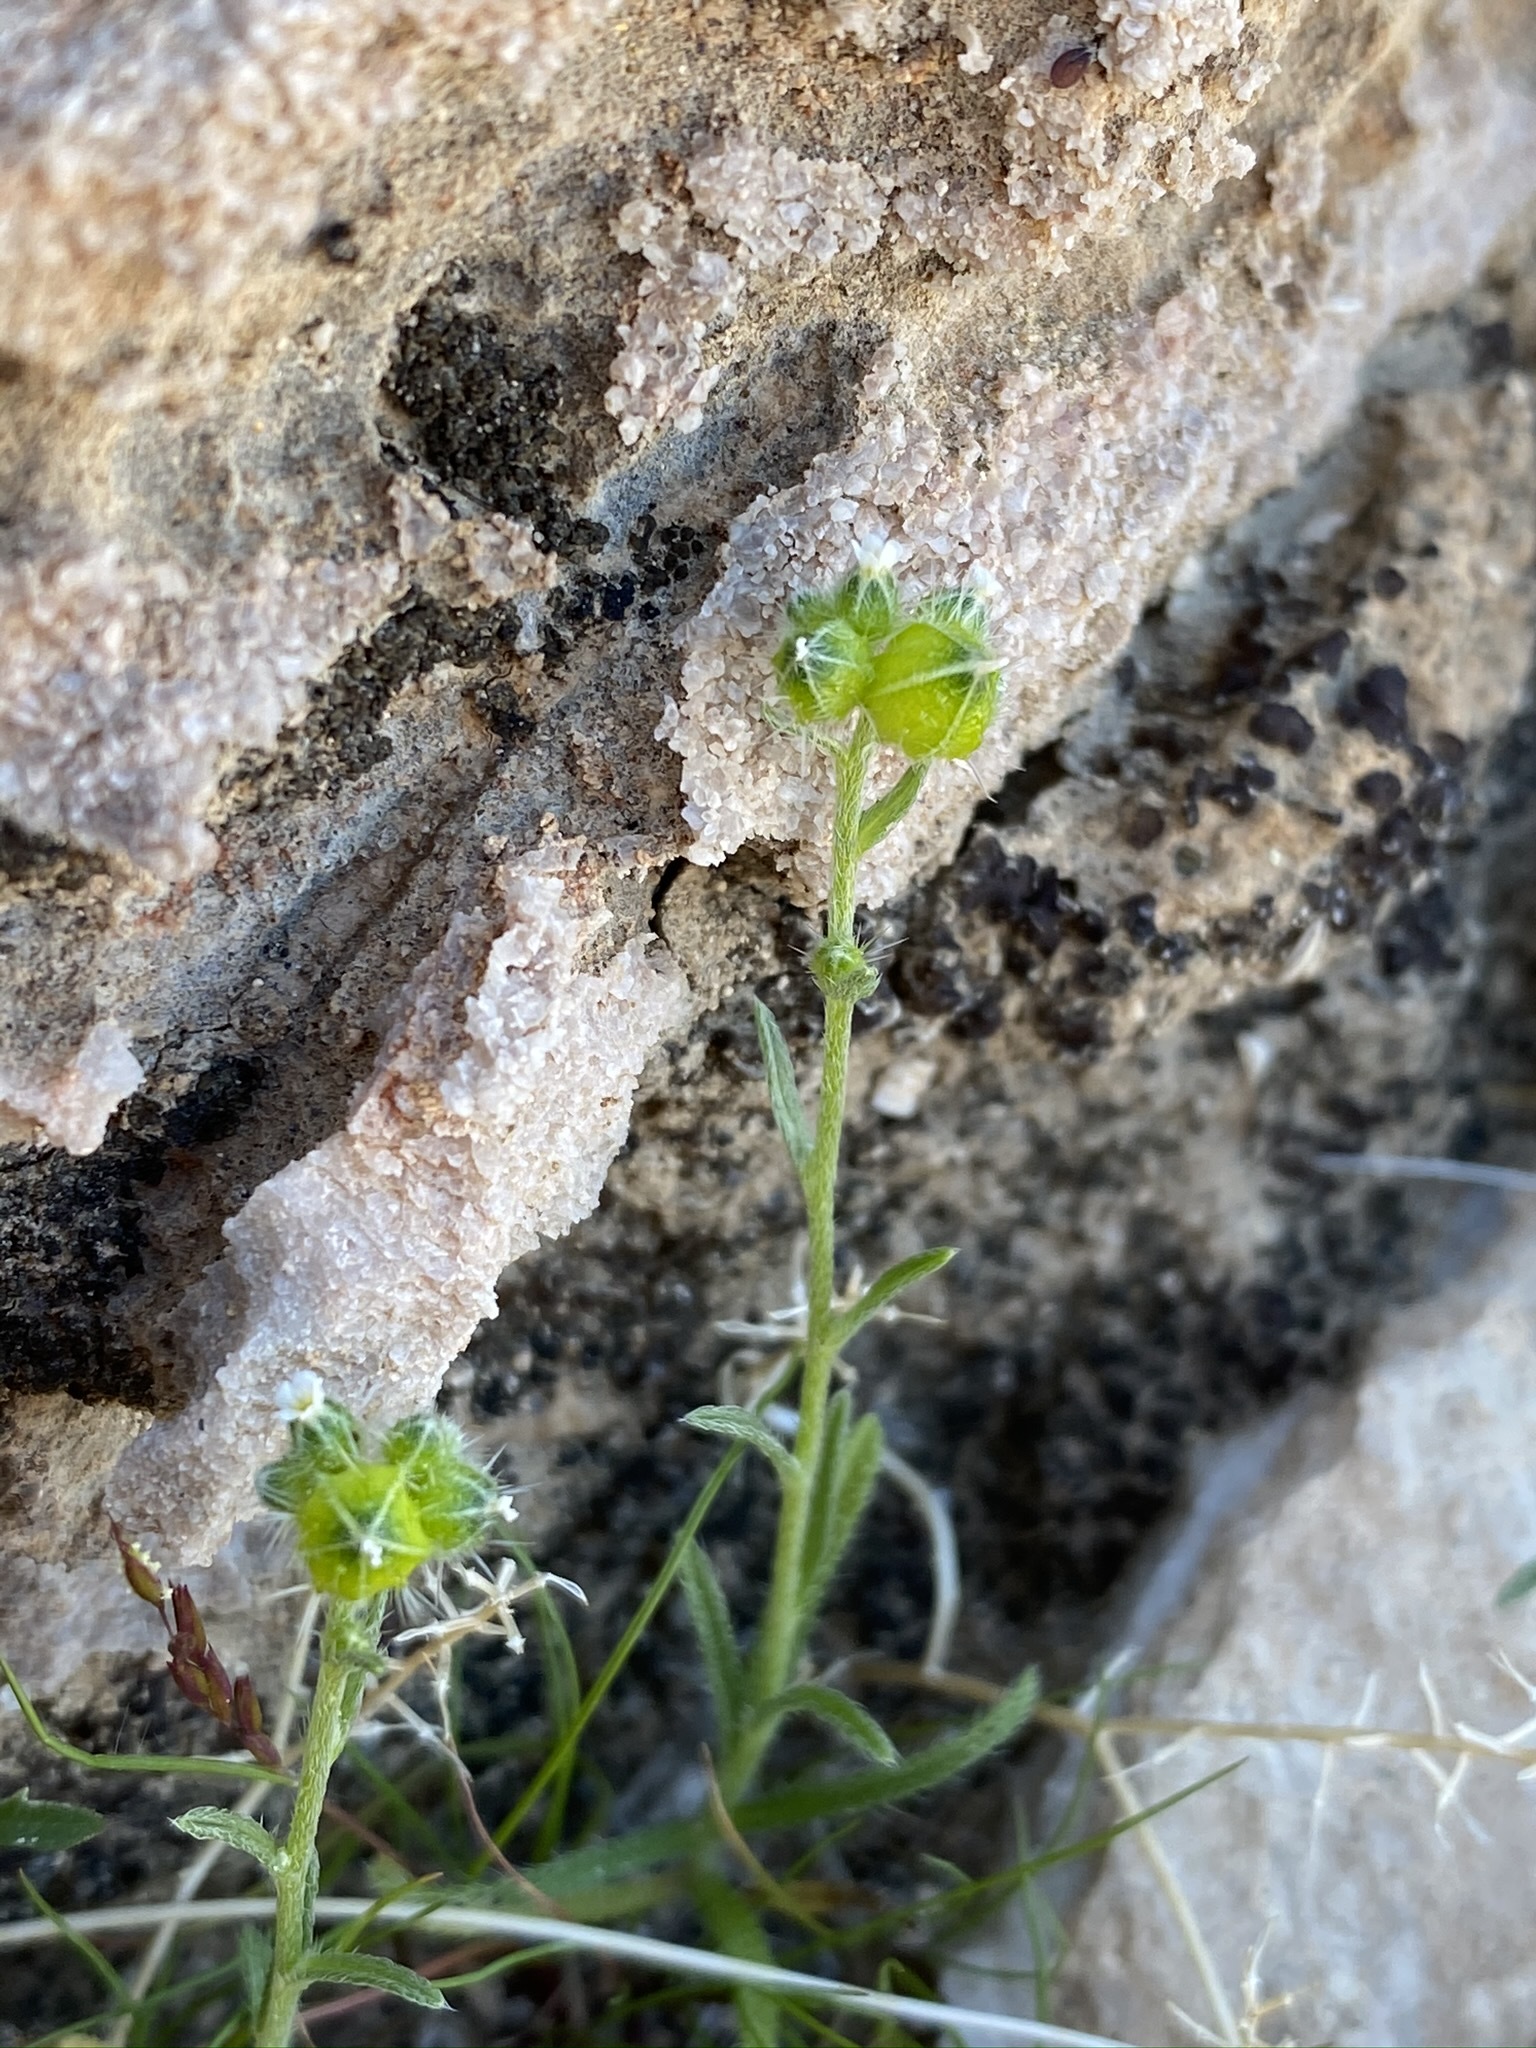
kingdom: Plantae
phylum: Tracheophyta
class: Magnoliopsida
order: Boraginales
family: Boraginaceae
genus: Cryptantha
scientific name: Cryptantha pterocarya
